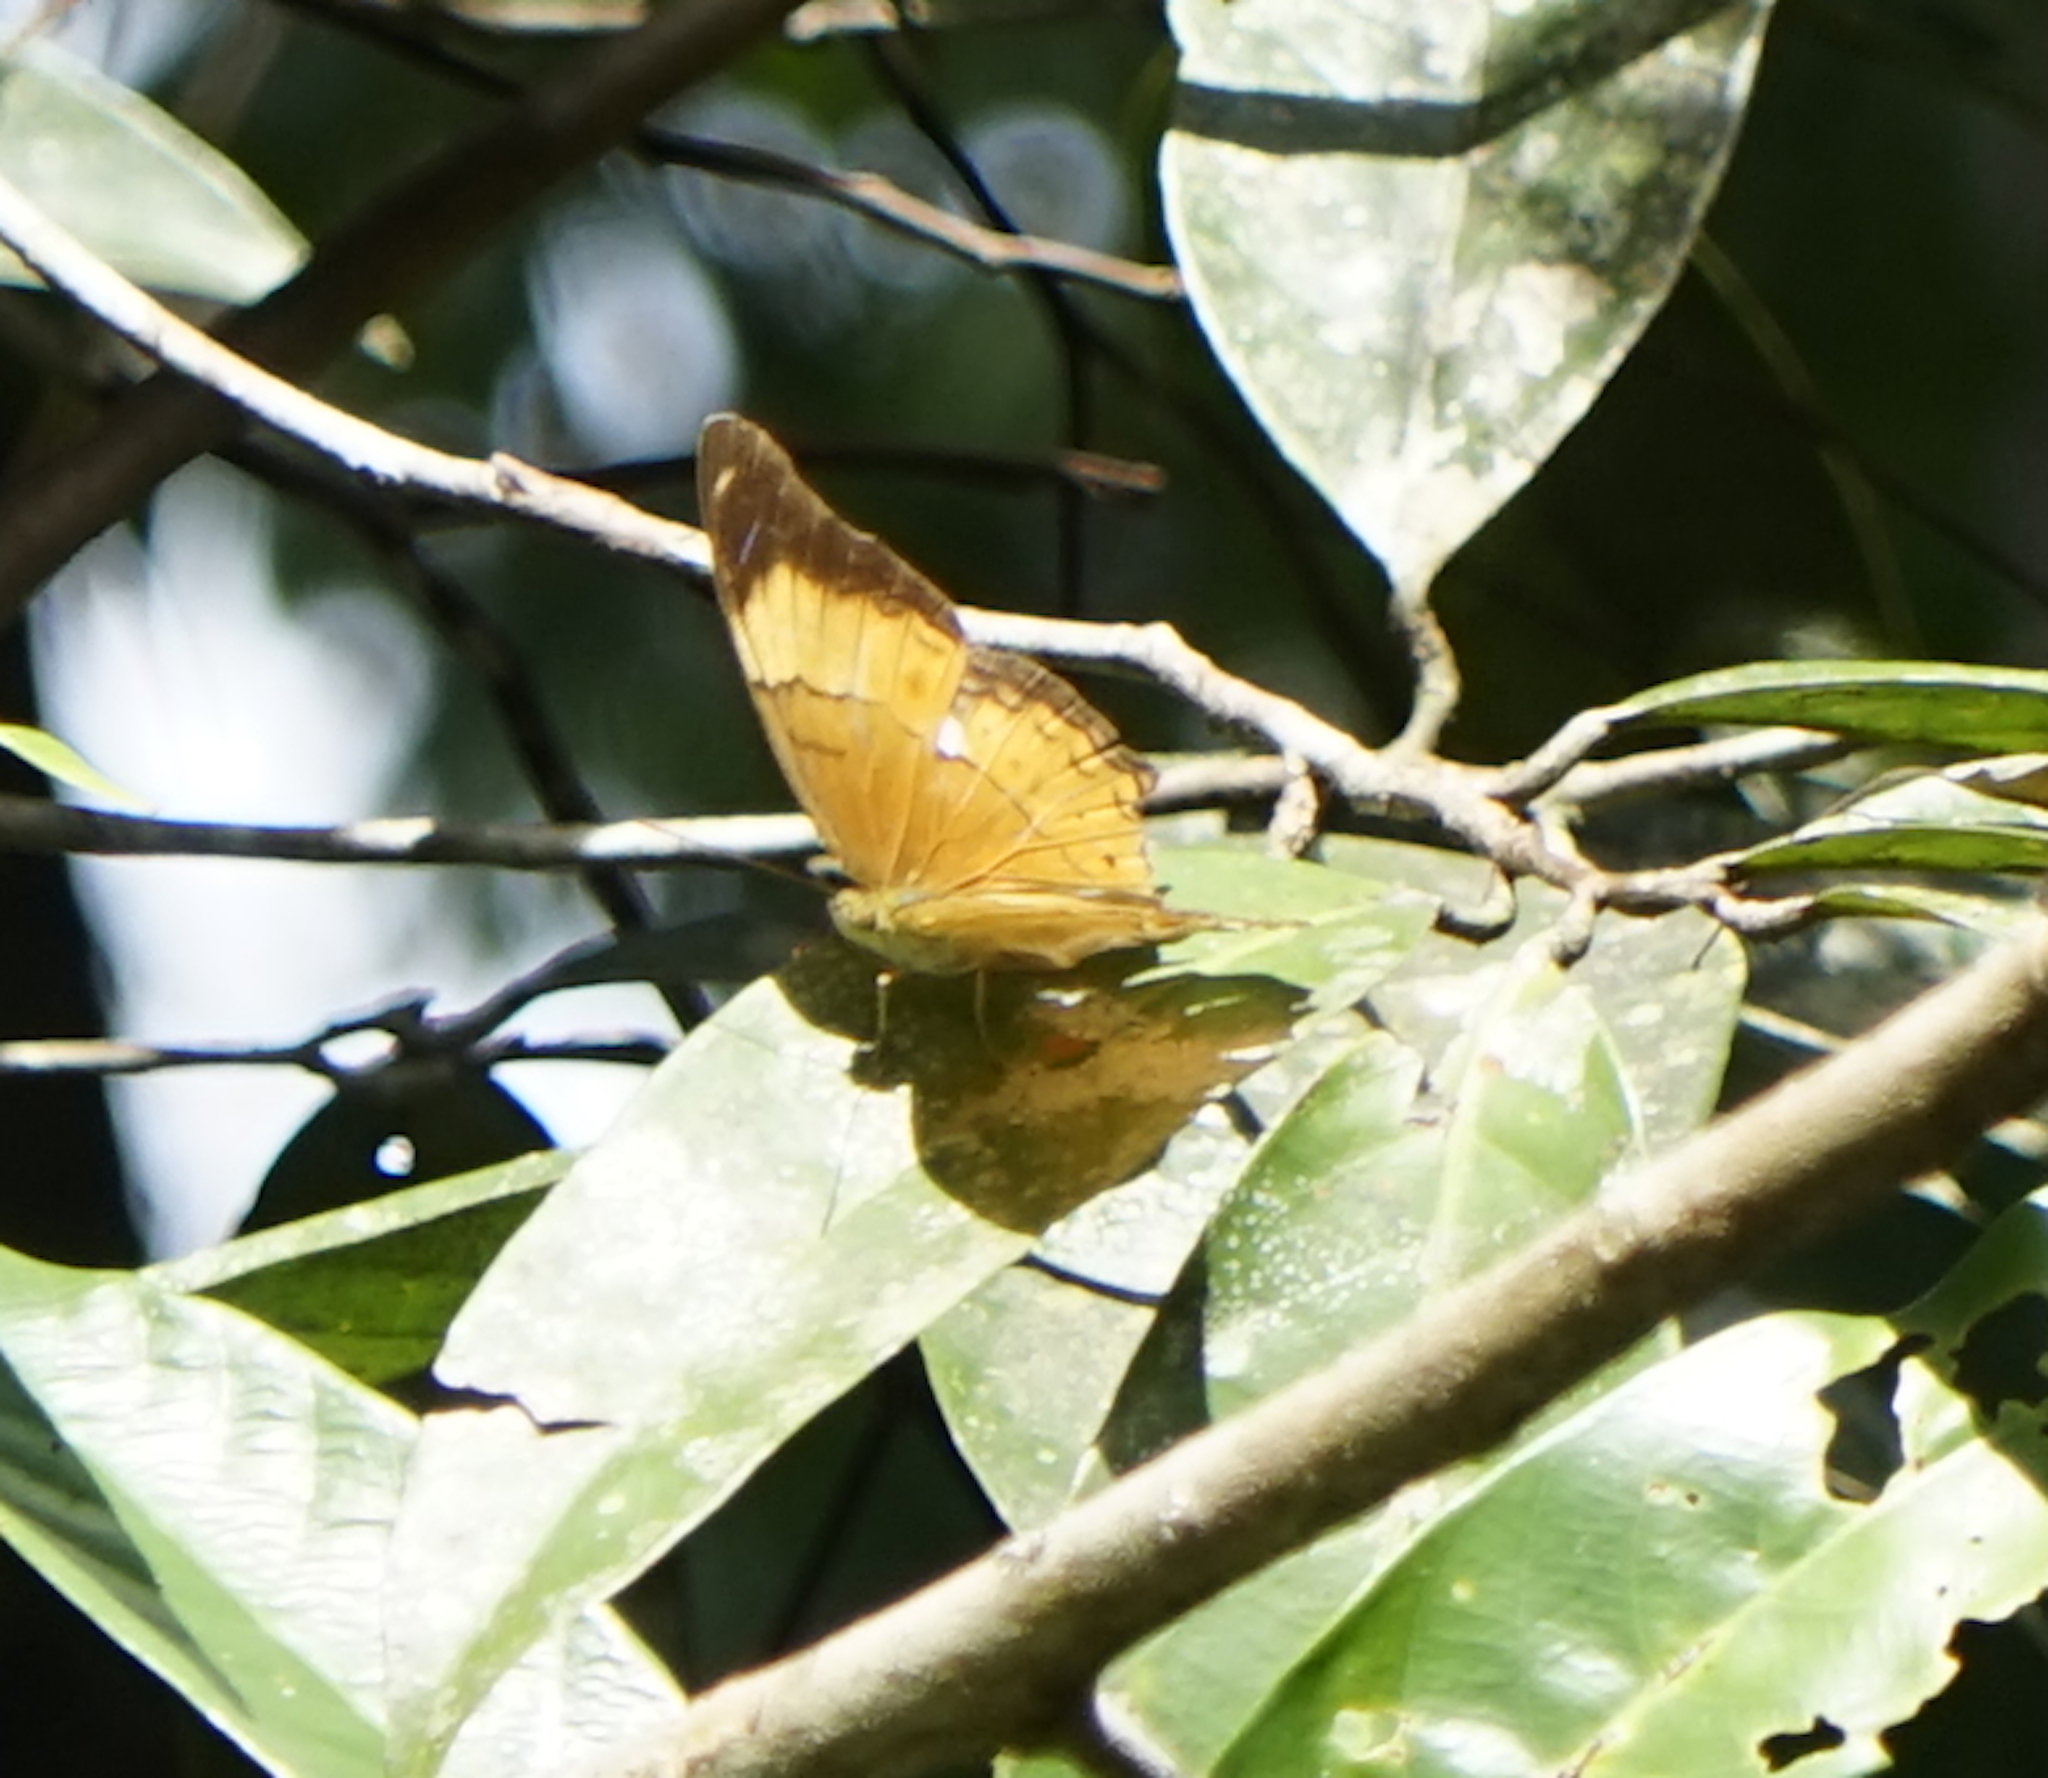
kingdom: Animalia
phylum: Arthropoda
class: Insecta
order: Lepidoptera
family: Nymphalidae
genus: Cirrochroa
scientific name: Cirrochroa emalea
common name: Malay yeoman
